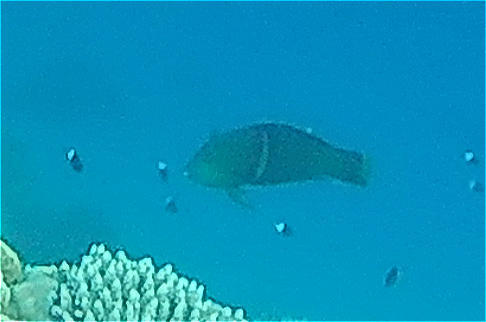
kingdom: Animalia
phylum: Chordata
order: Perciformes
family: Labridae
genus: Coris
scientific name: Coris aygula
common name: Clown coris
